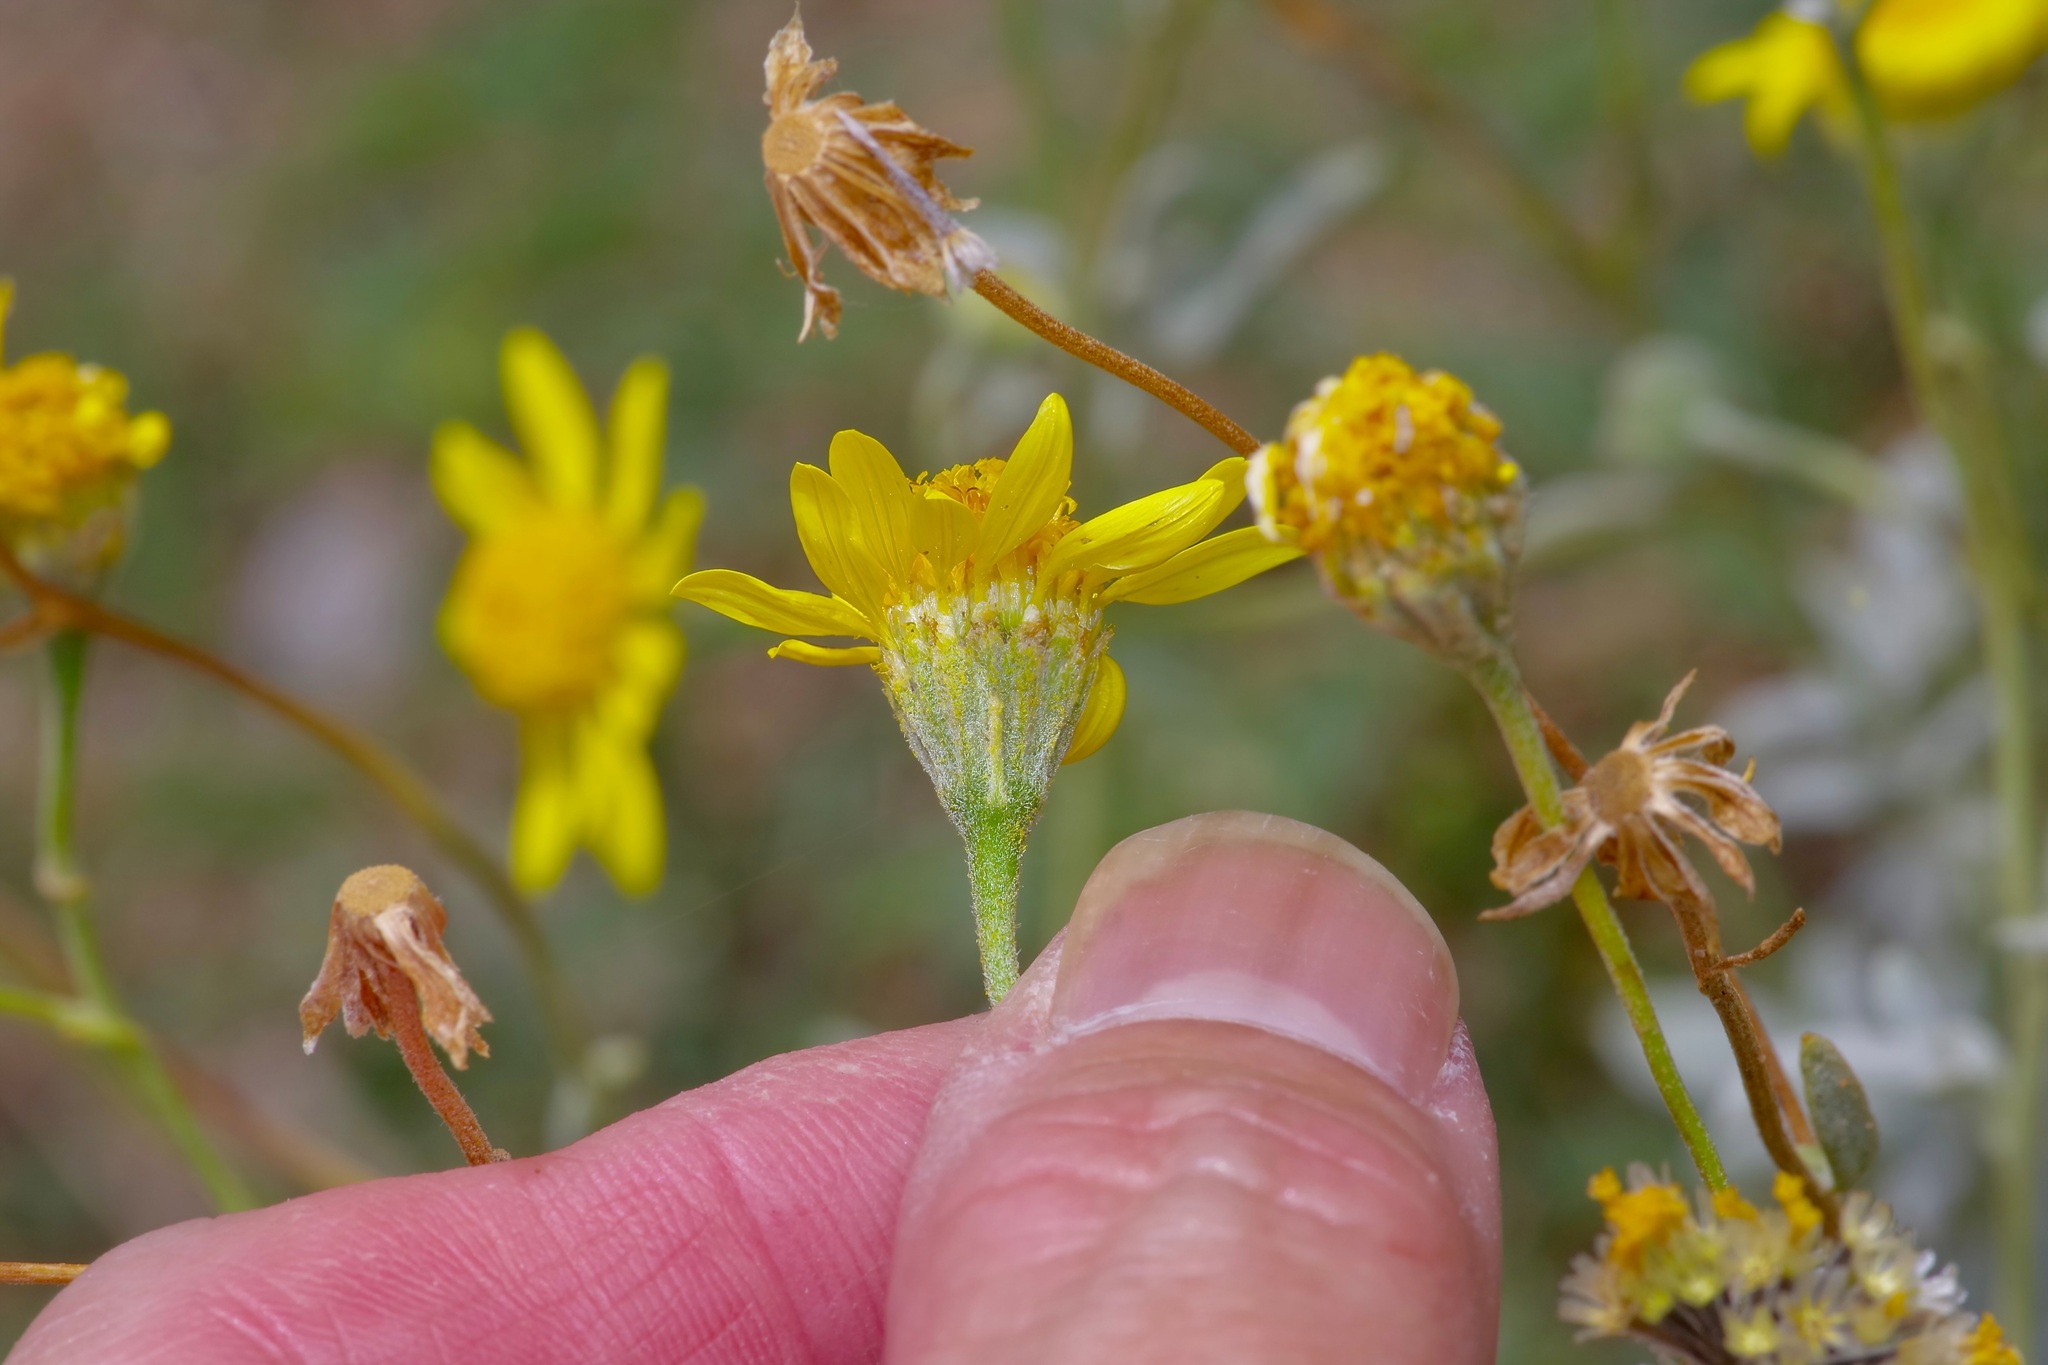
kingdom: Plantae
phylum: Tracheophyta
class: Magnoliopsida
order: Asterales
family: Asteraceae
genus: Picradeniopsis
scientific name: Picradeniopsis absinthifolia
